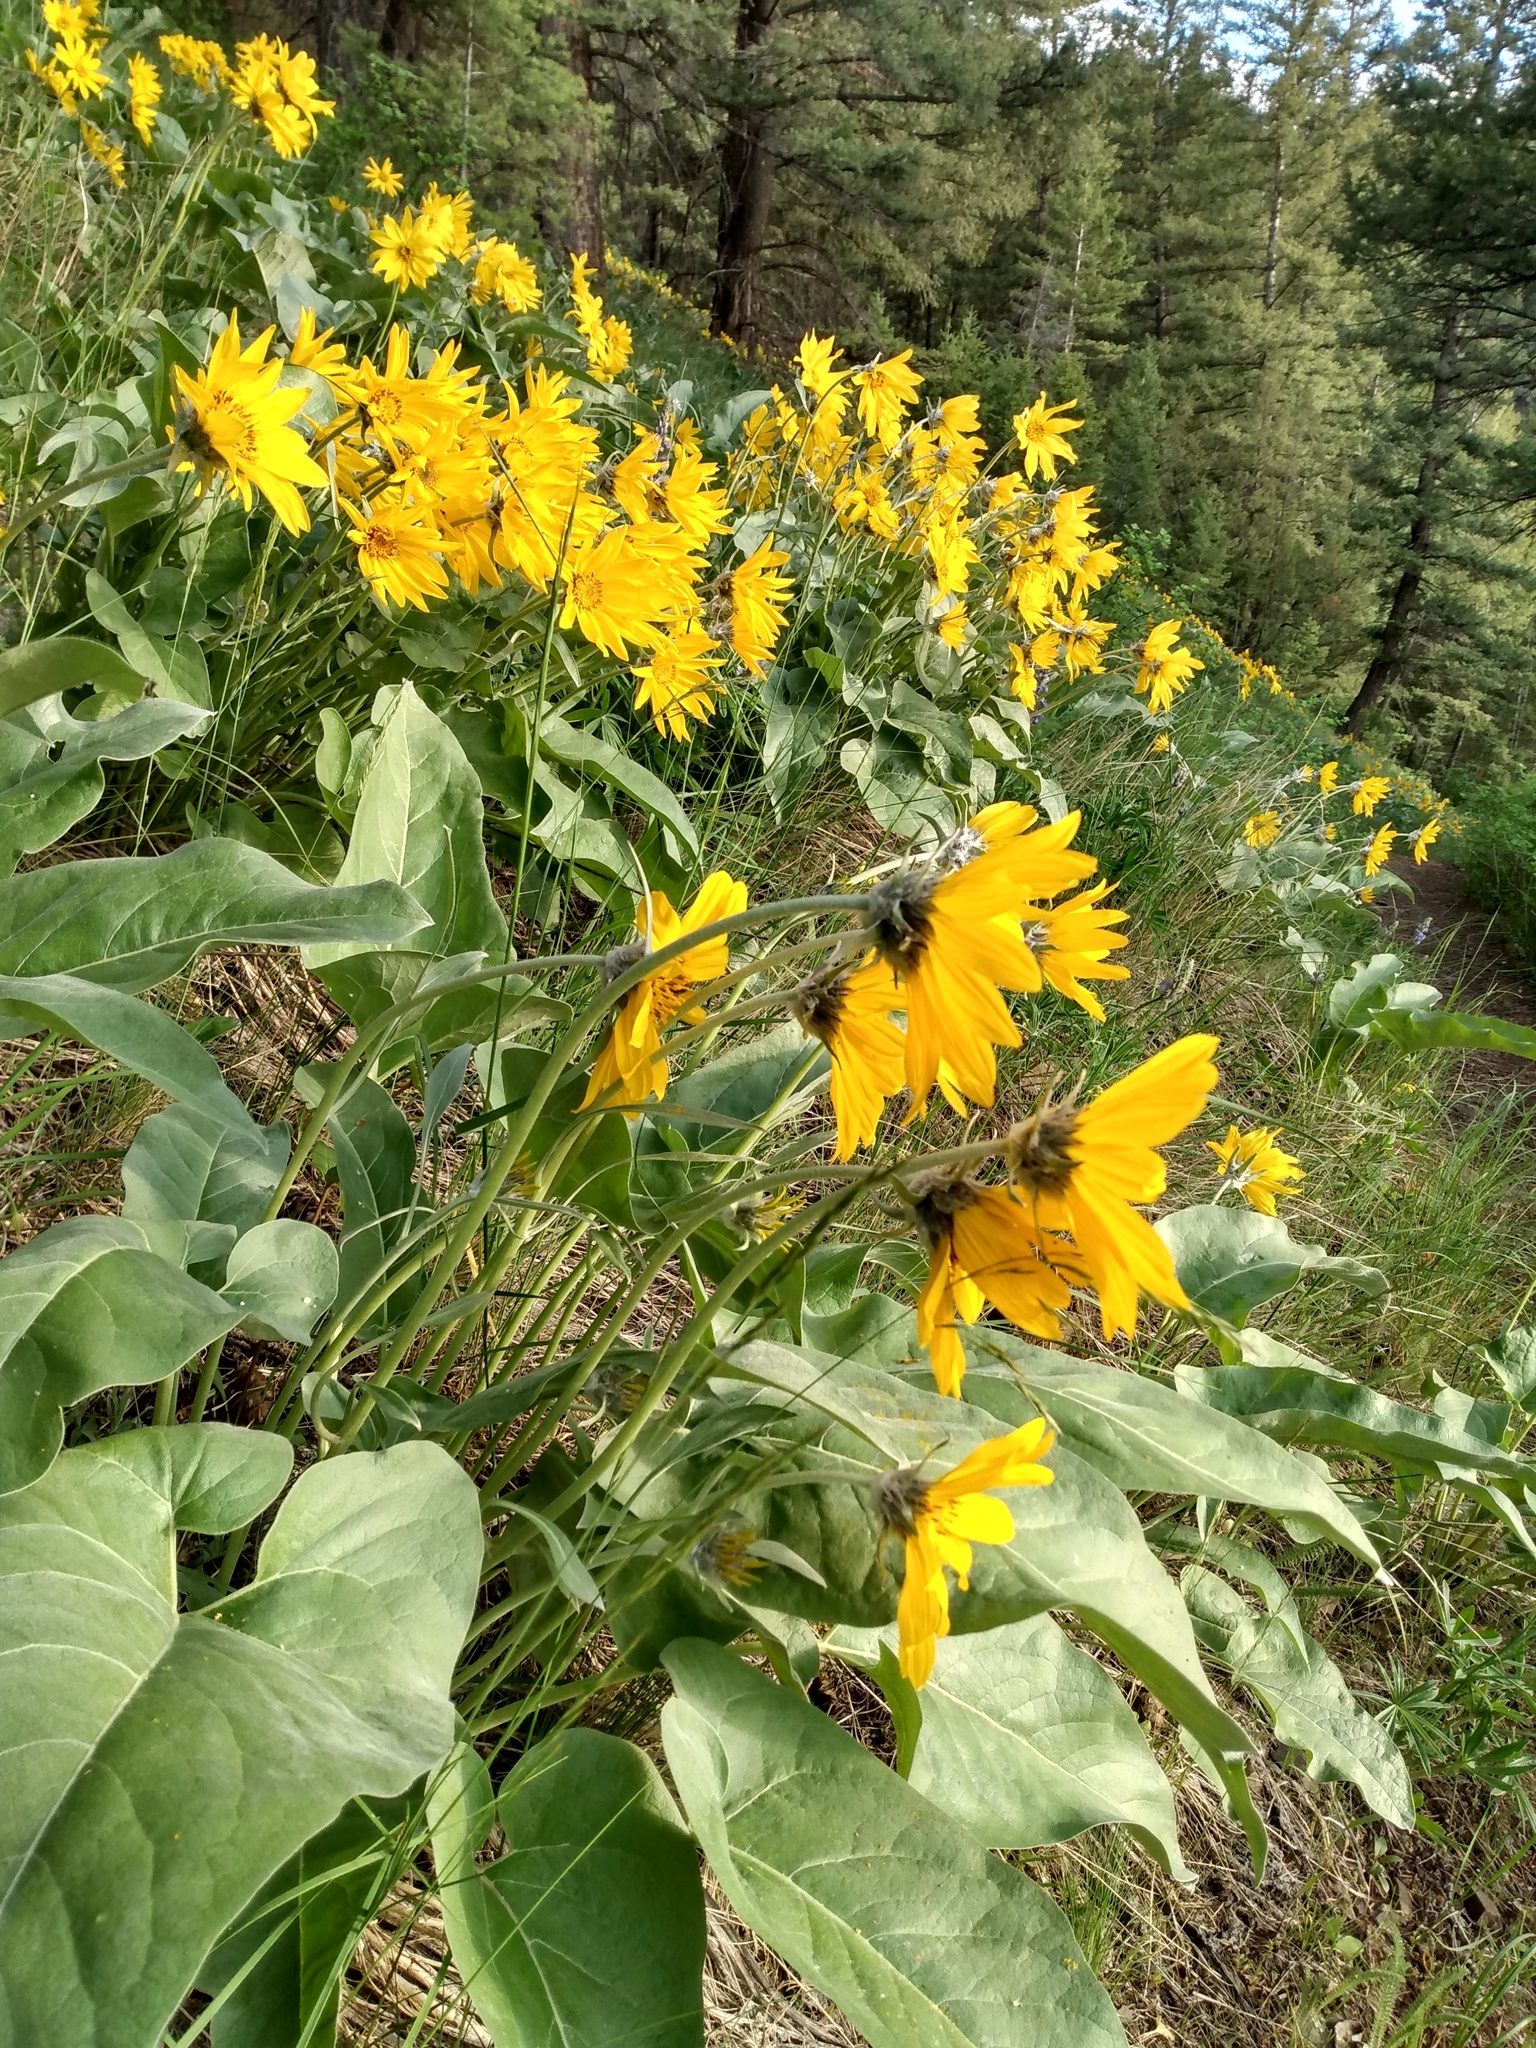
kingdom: Plantae
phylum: Tracheophyta
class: Magnoliopsida
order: Asterales
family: Asteraceae
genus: Wyethia
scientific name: Wyethia sagittata
